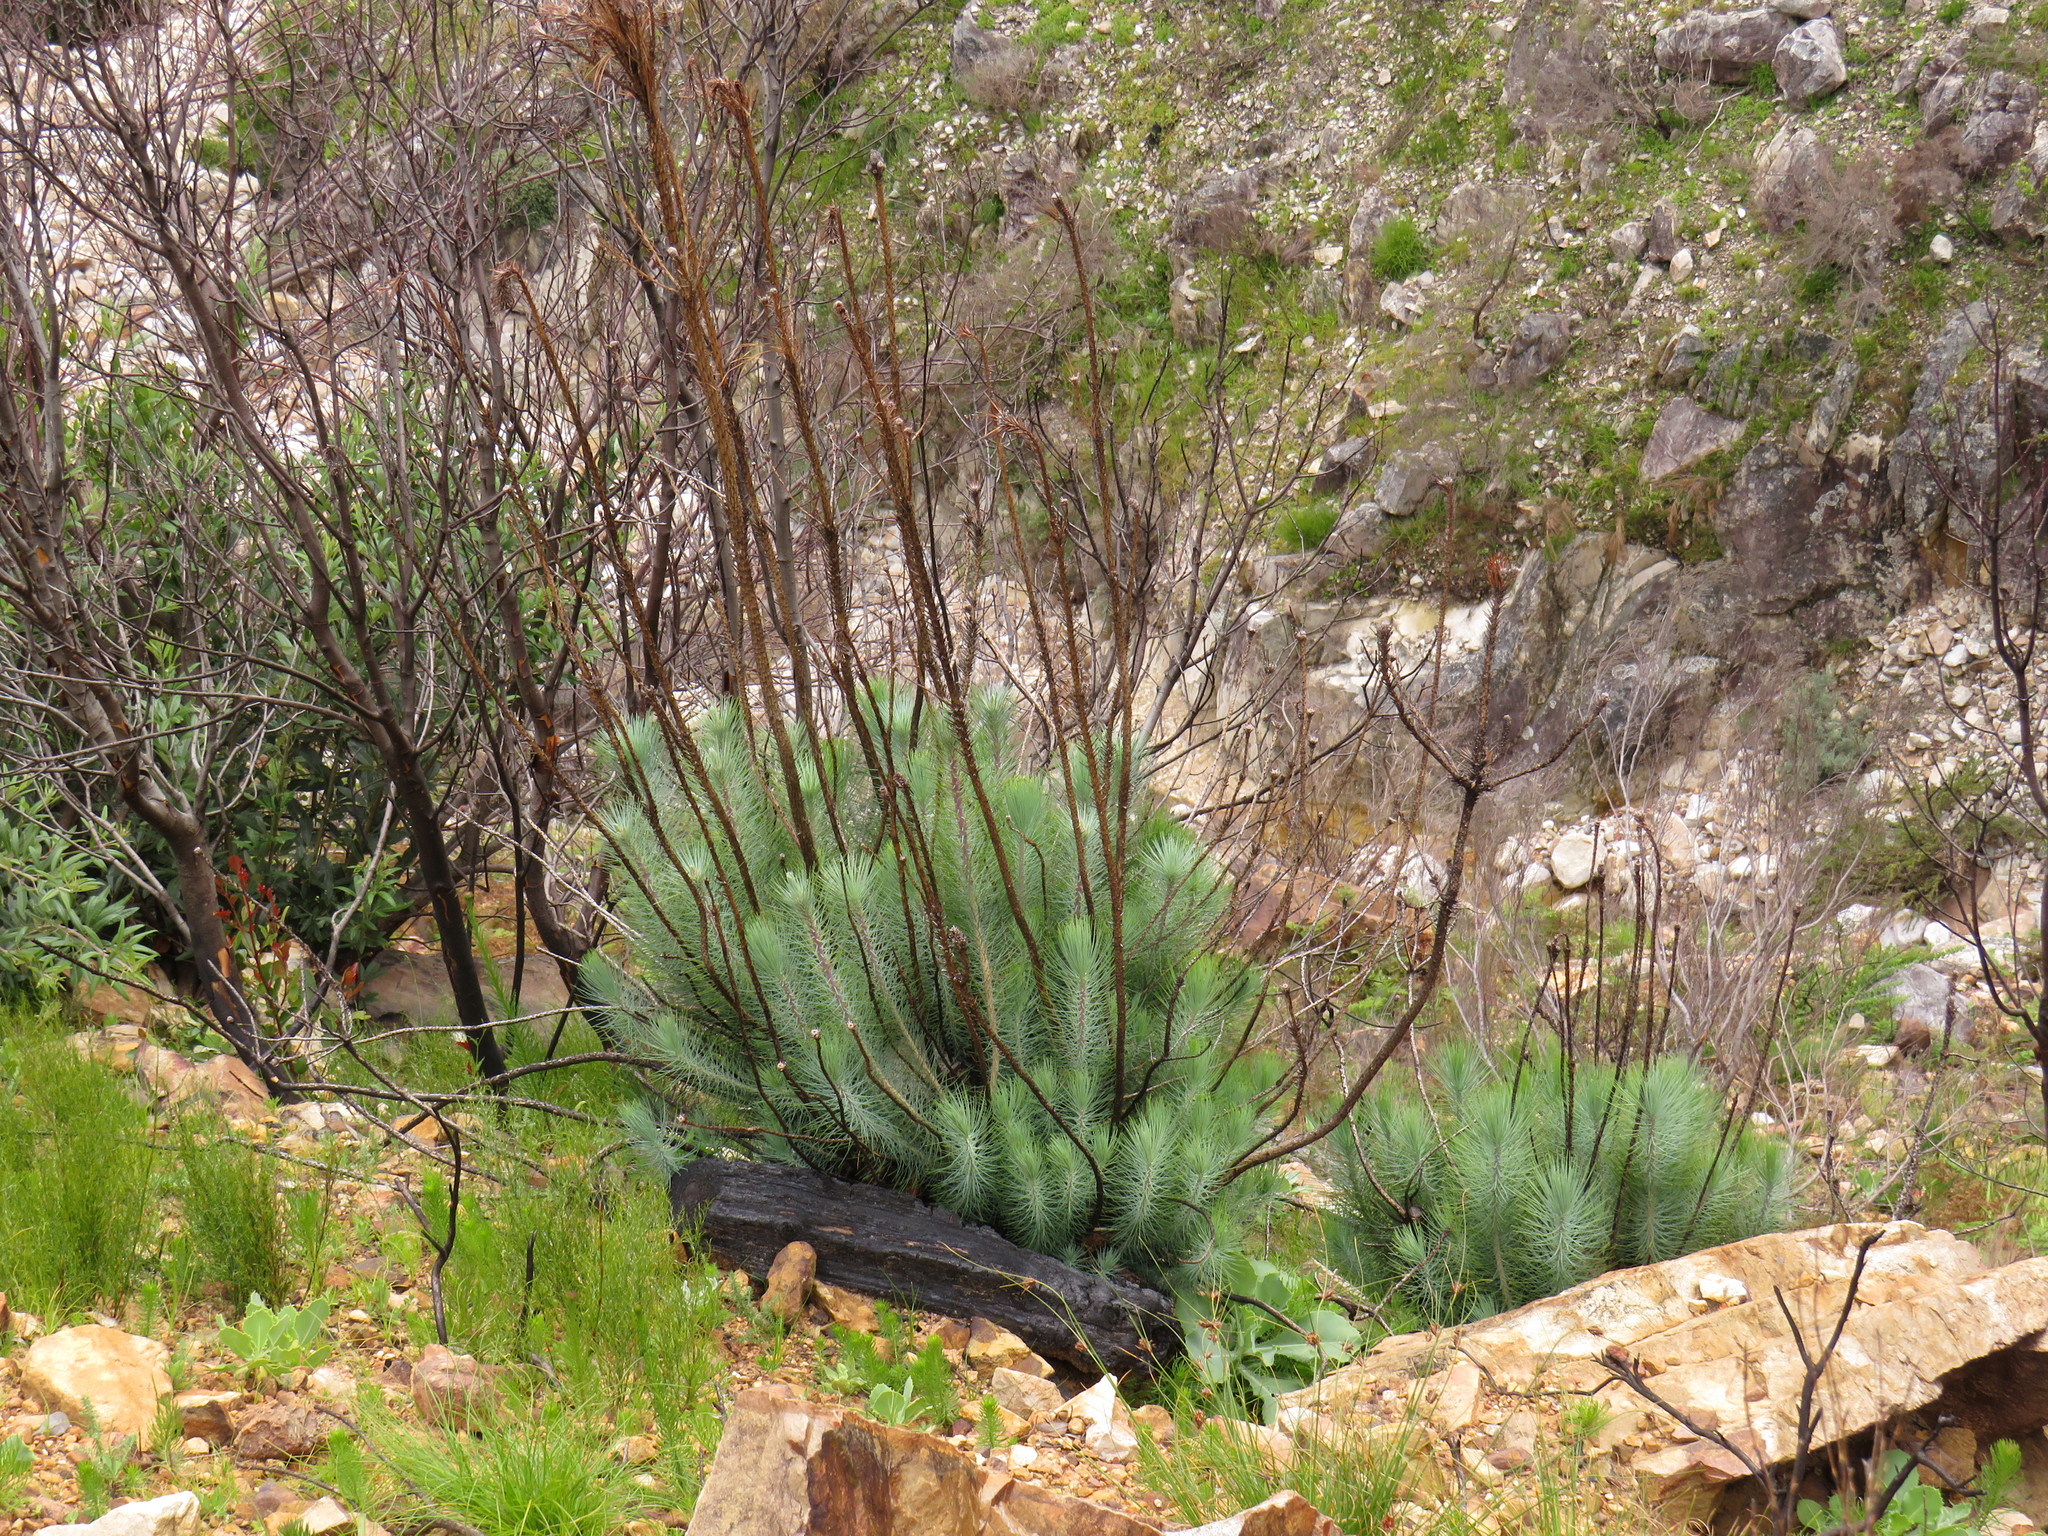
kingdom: Plantae
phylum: Tracheophyta
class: Pinopsida
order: Pinales
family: Pinaceae
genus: Pinus
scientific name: Pinus canariensis
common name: Canary islands pine
